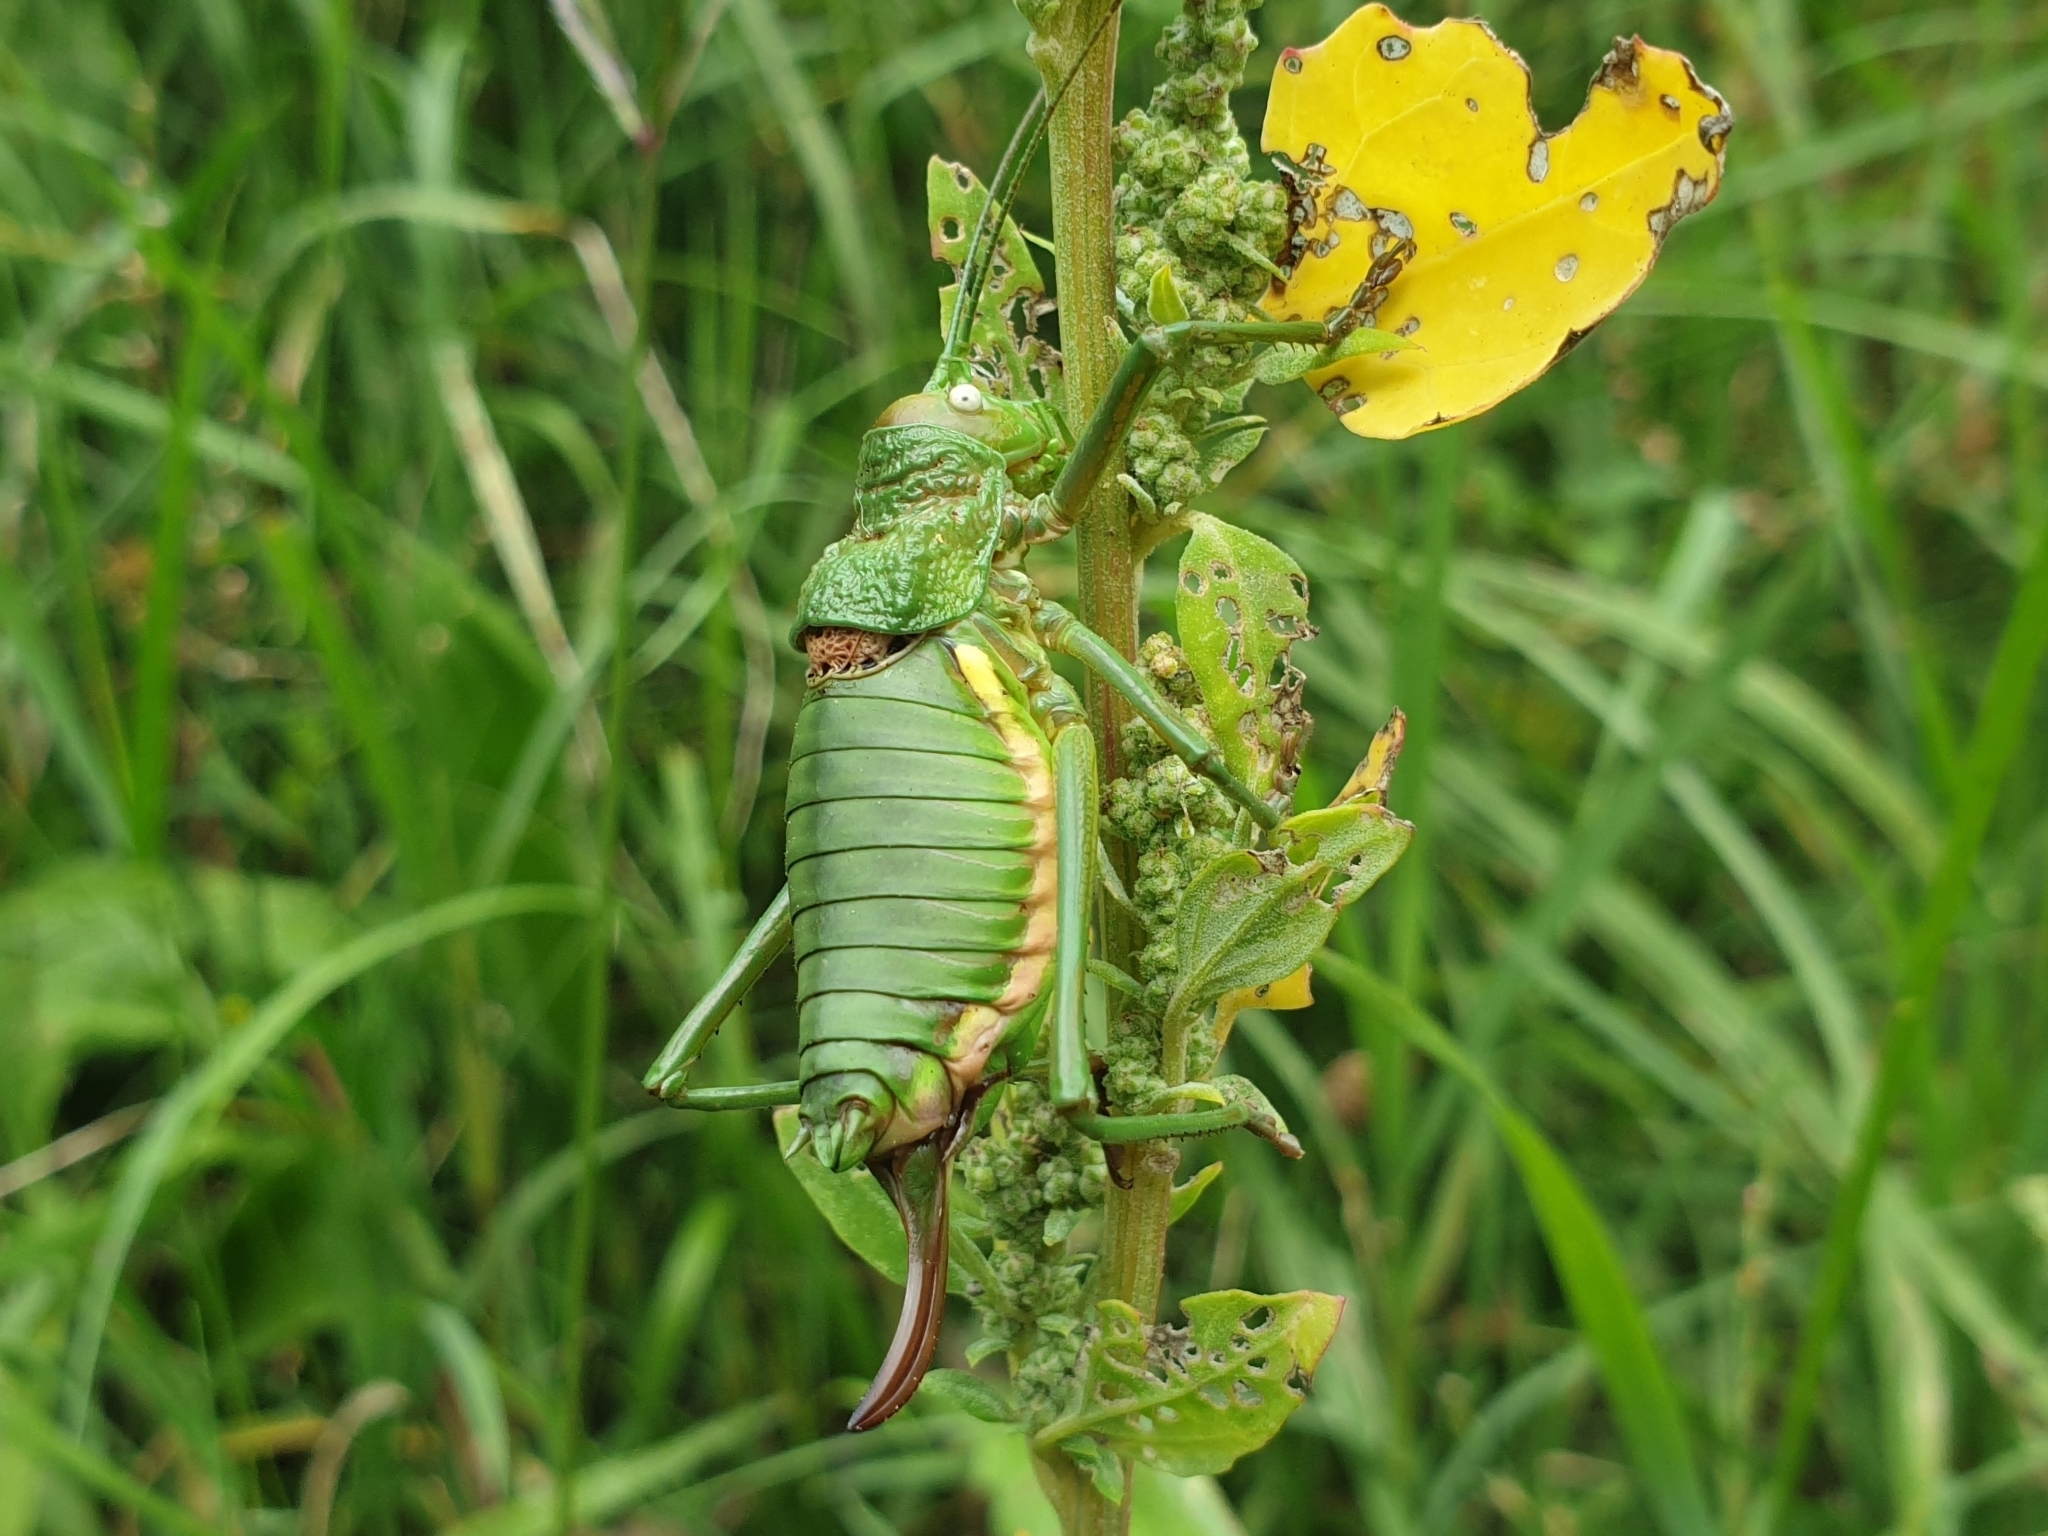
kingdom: Animalia
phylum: Arthropoda
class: Insecta
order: Orthoptera
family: Tettigoniidae
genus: Uromenus
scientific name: Uromenus rugosicollis
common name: Rough saddle bush-cricket
